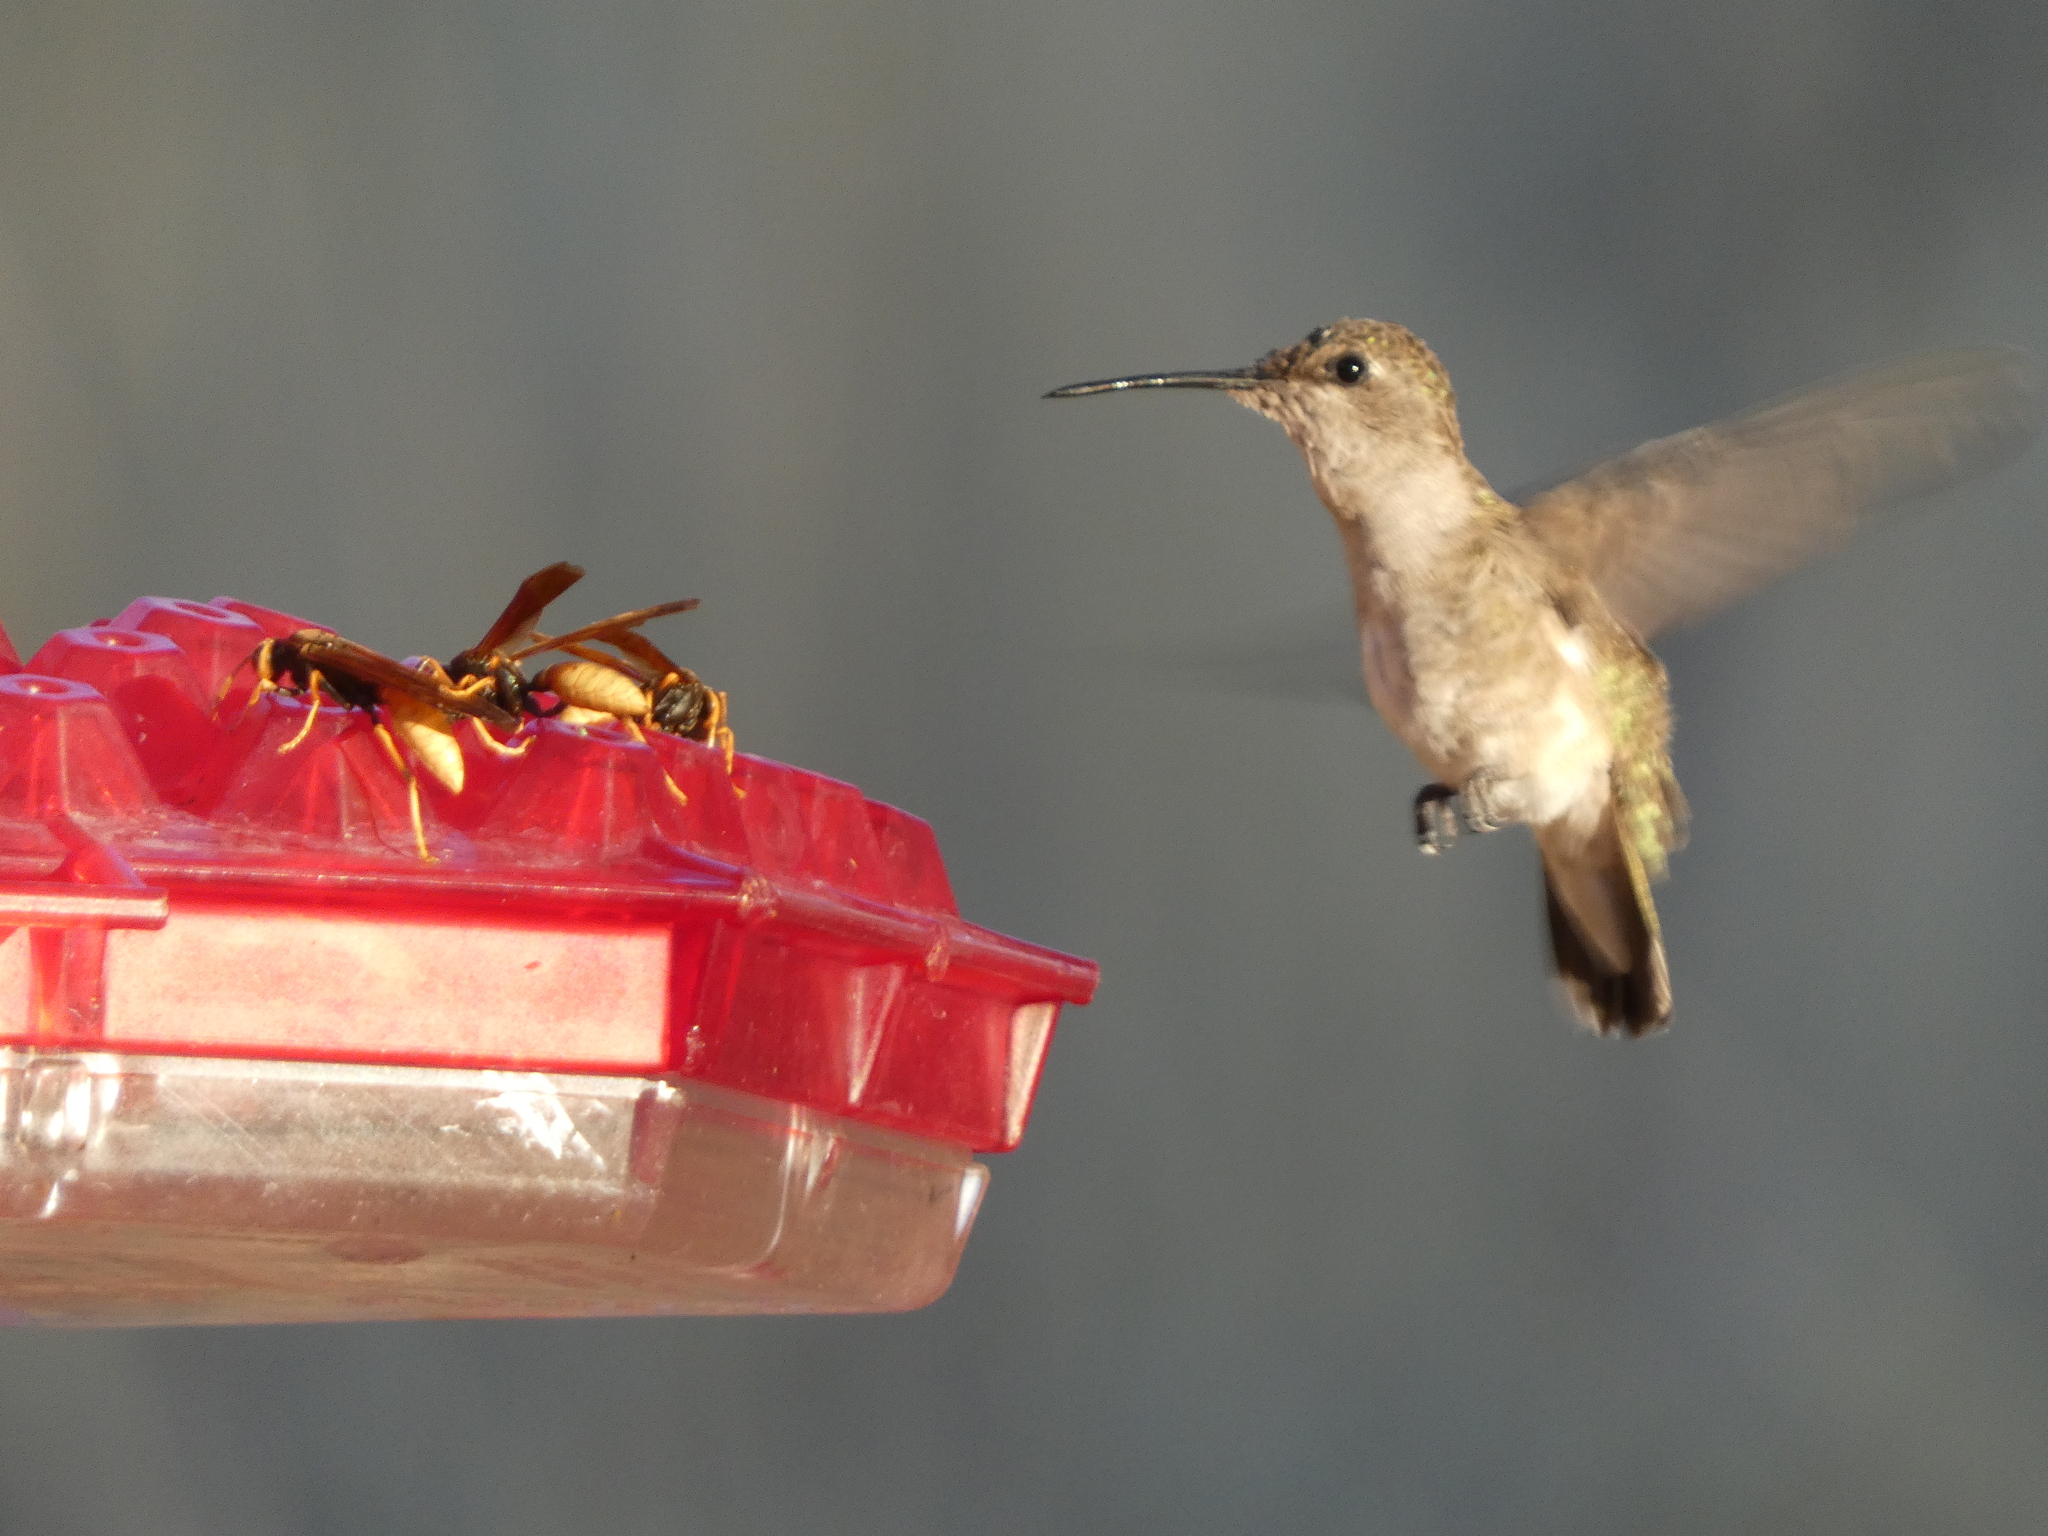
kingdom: Animalia
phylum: Chordata
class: Aves
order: Apodiformes
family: Trochilidae
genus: Archilochus
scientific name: Archilochus alexandri
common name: Black-chinned hummingbird
